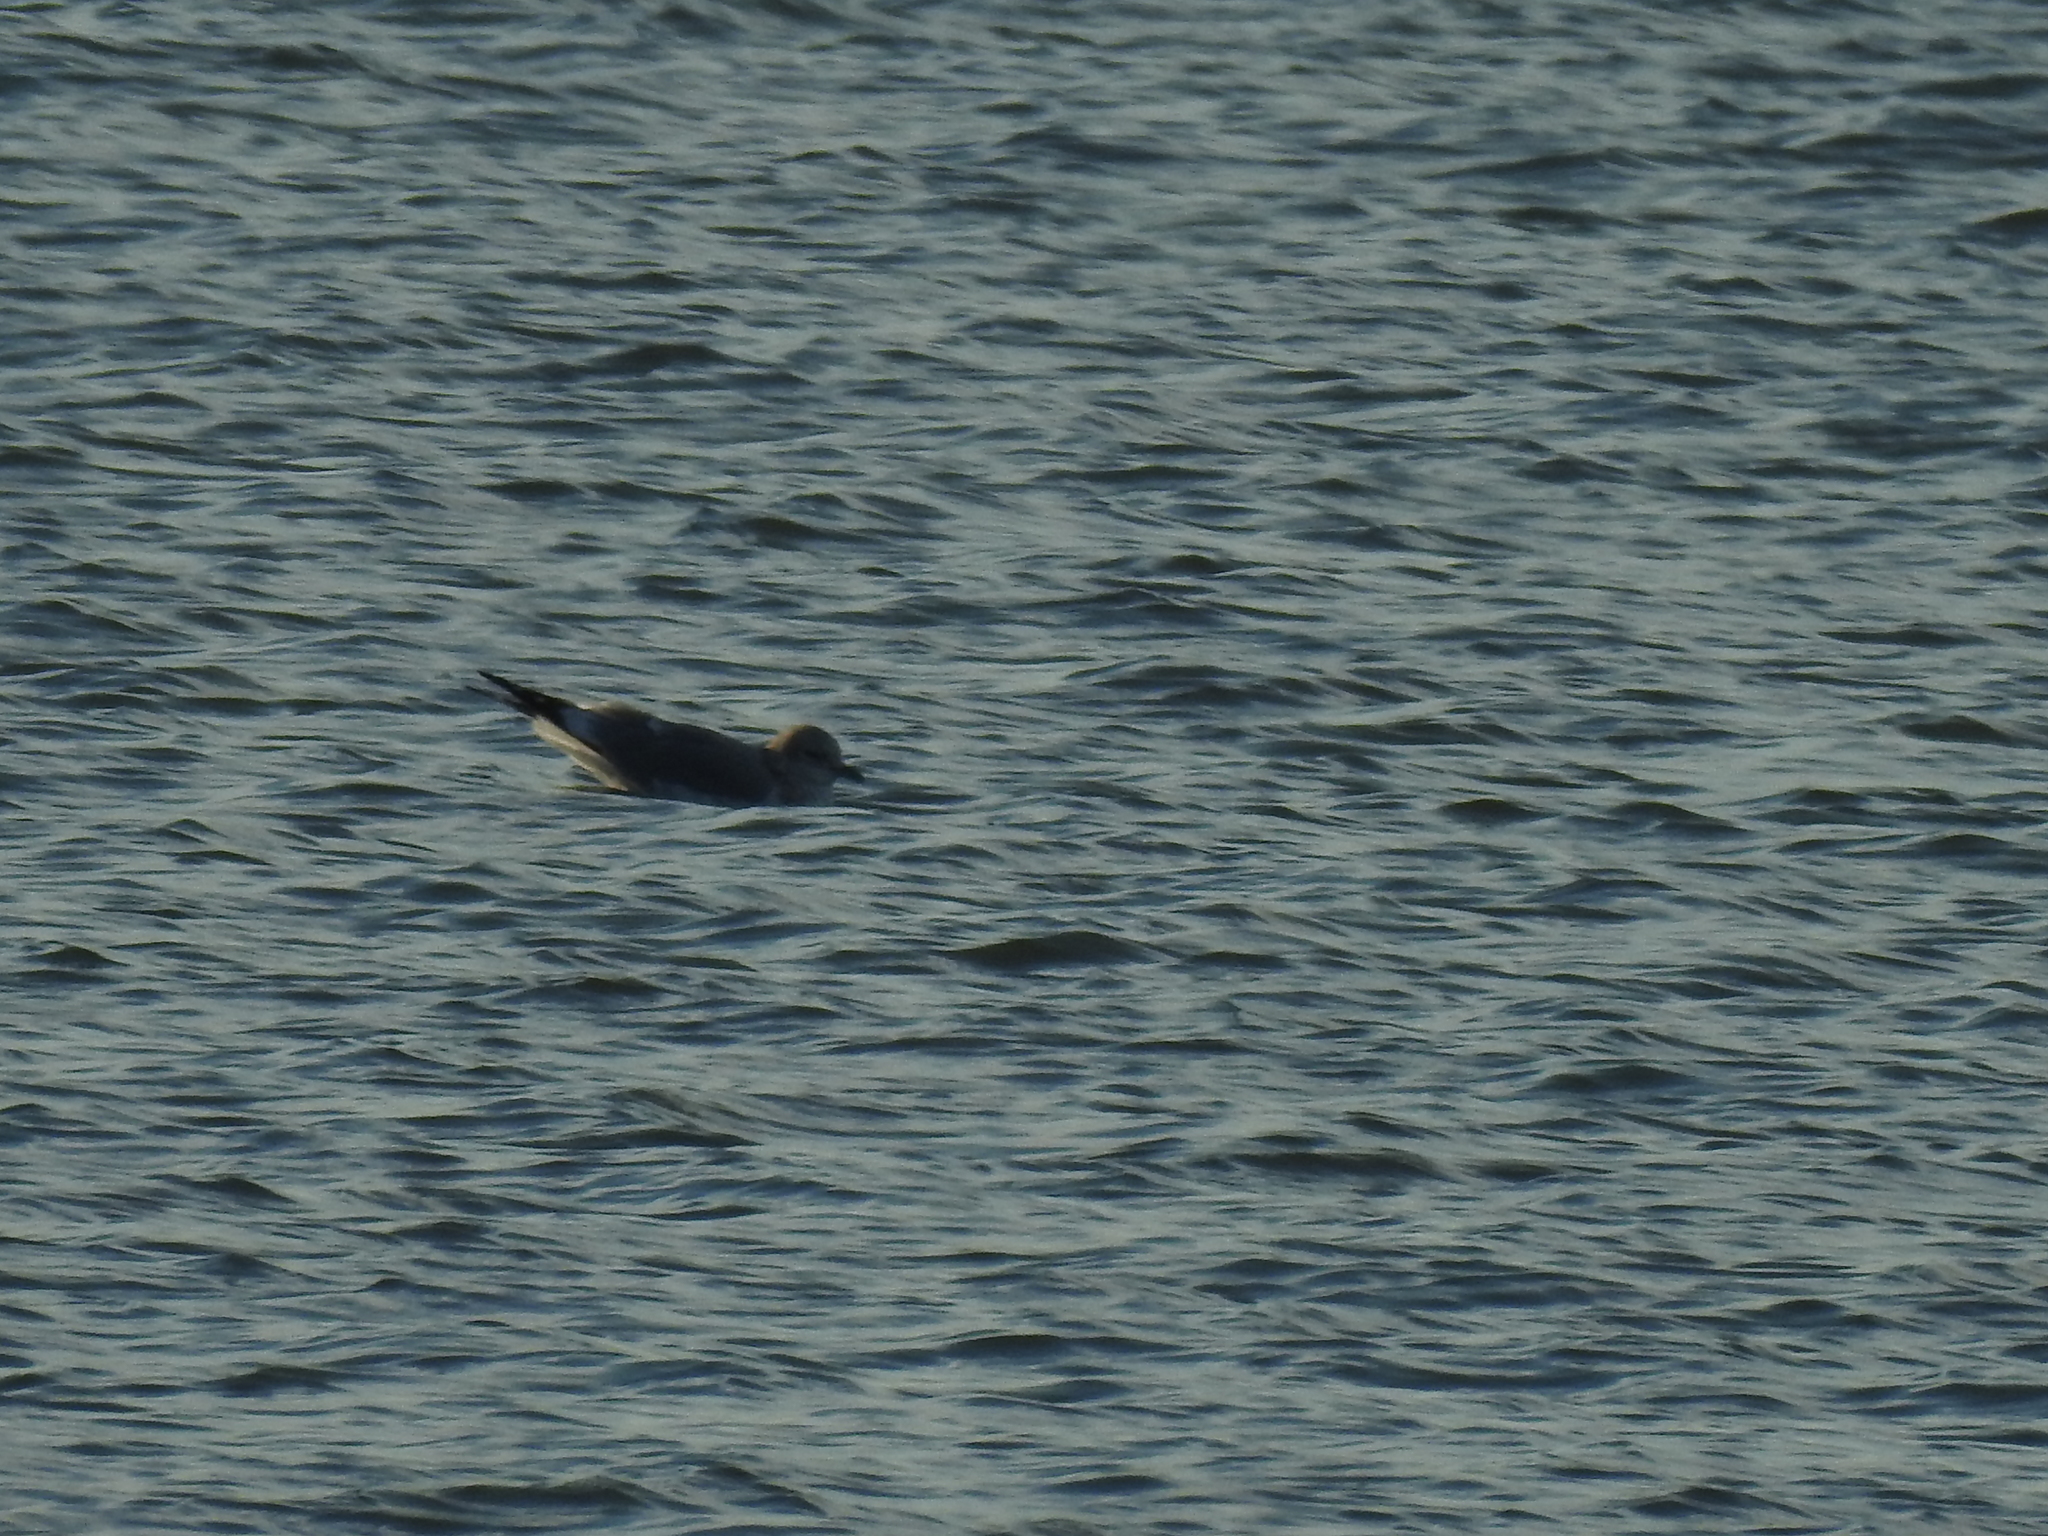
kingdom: Animalia
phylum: Chordata
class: Aves
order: Charadriiformes
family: Laridae
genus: Larus
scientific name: Larus brachyrhynchus
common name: Short-billed gull
